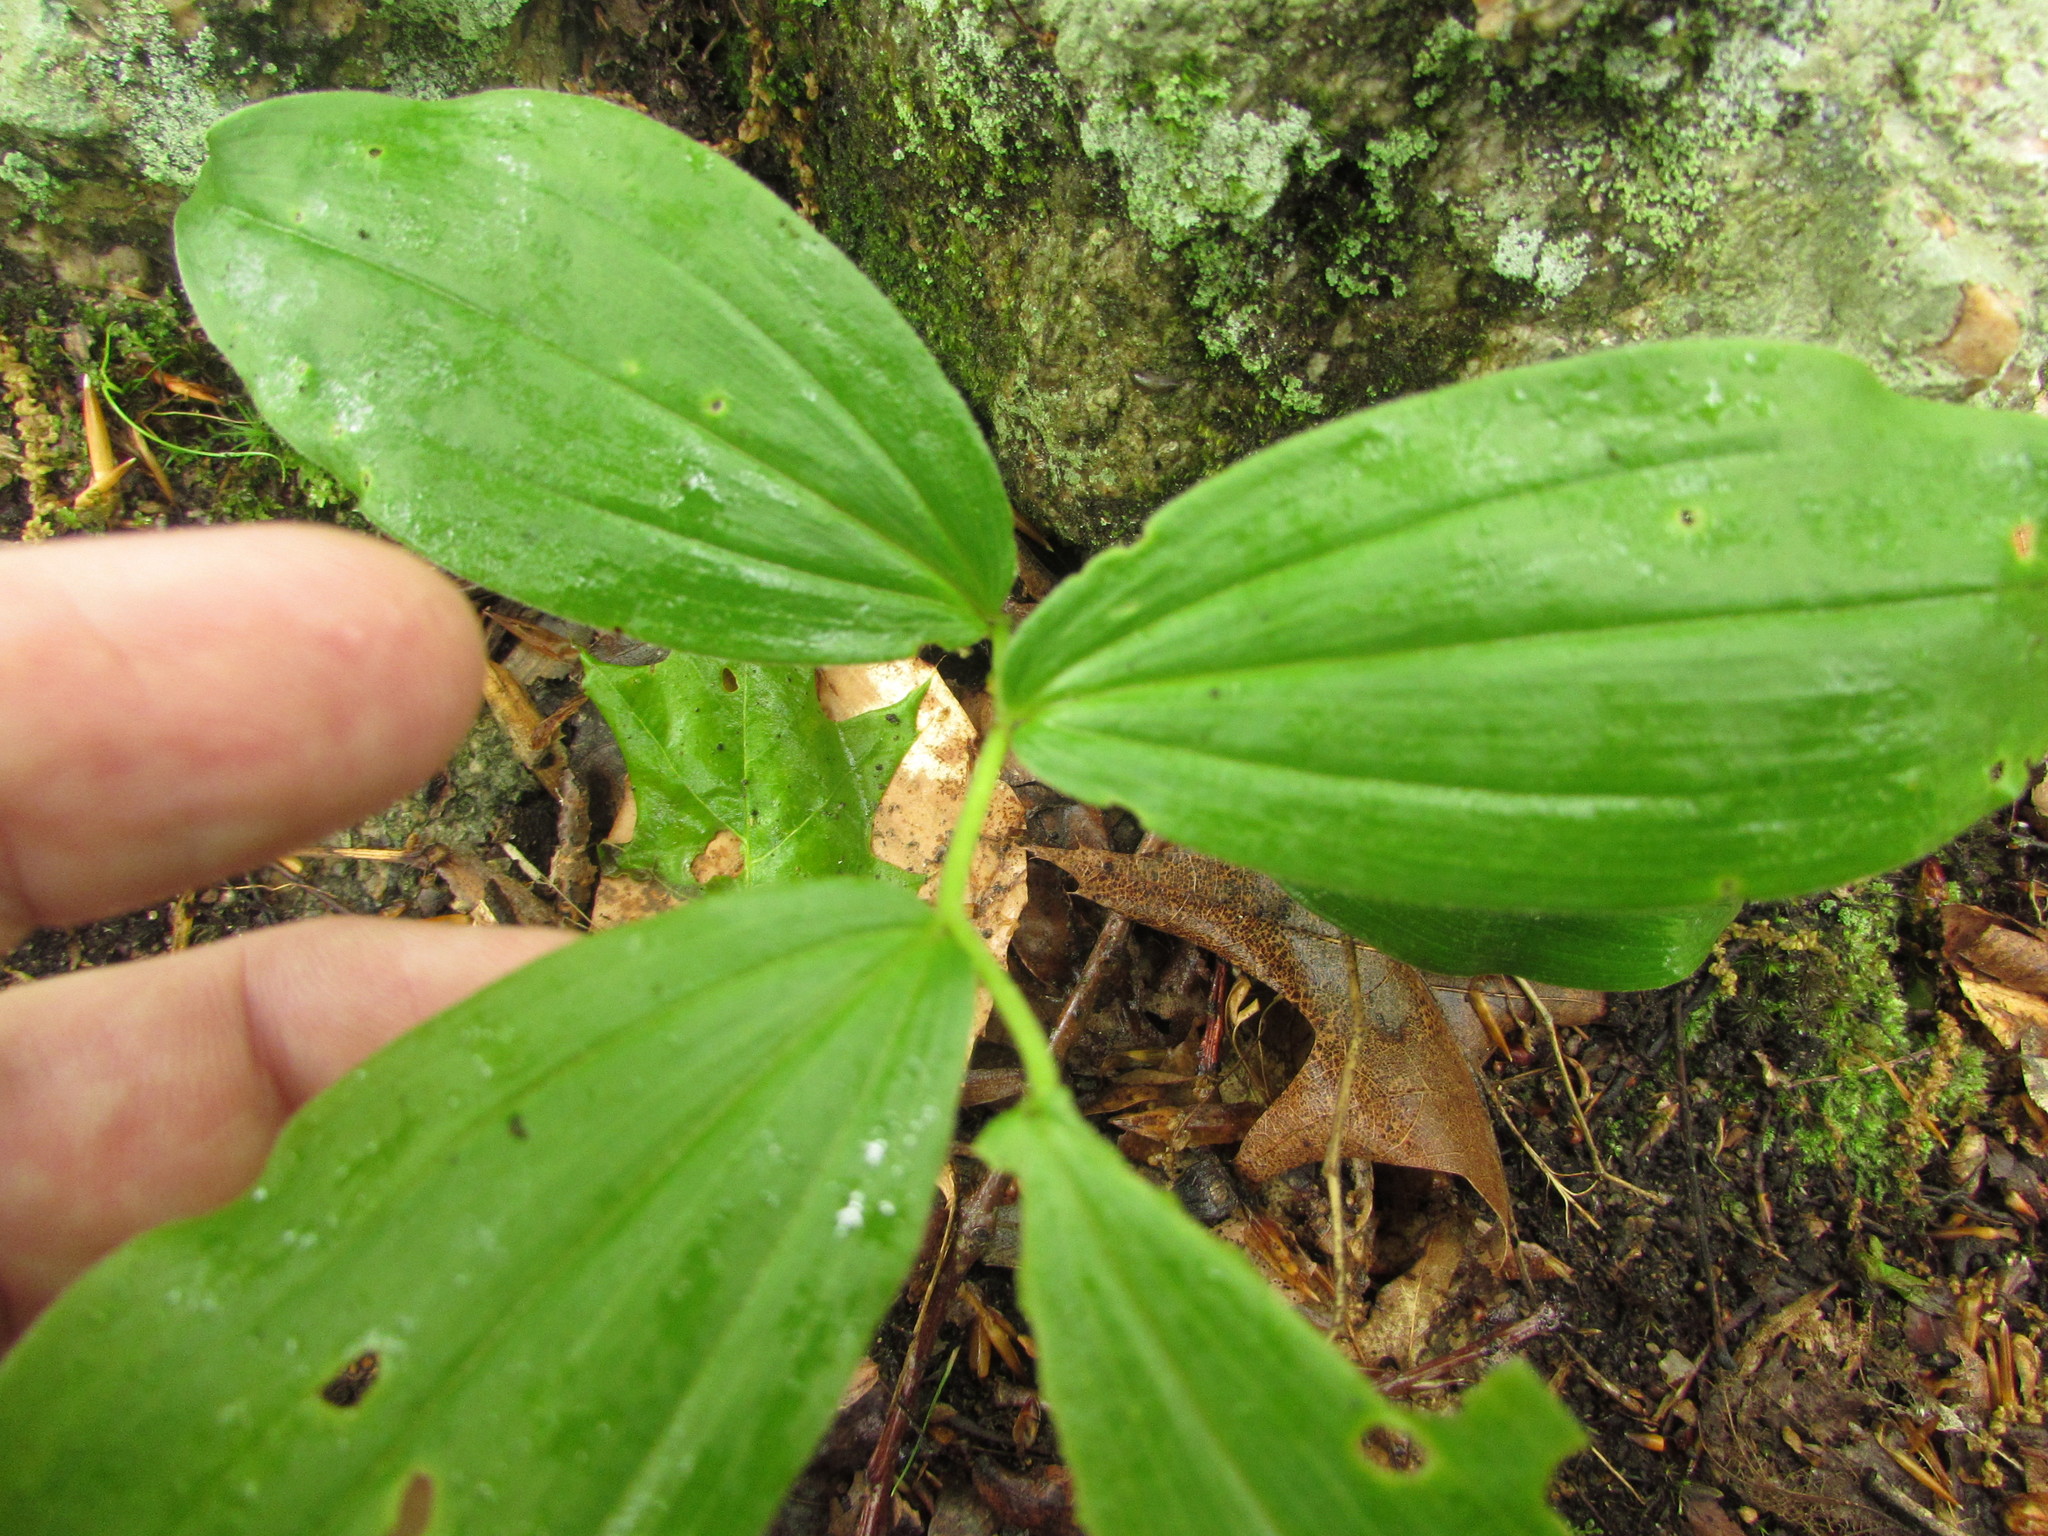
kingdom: Plantae
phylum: Tracheophyta
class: Liliopsida
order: Asparagales
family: Asparagaceae
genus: Maianthemum
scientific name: Maianthemum racemosum
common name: False spikenard
